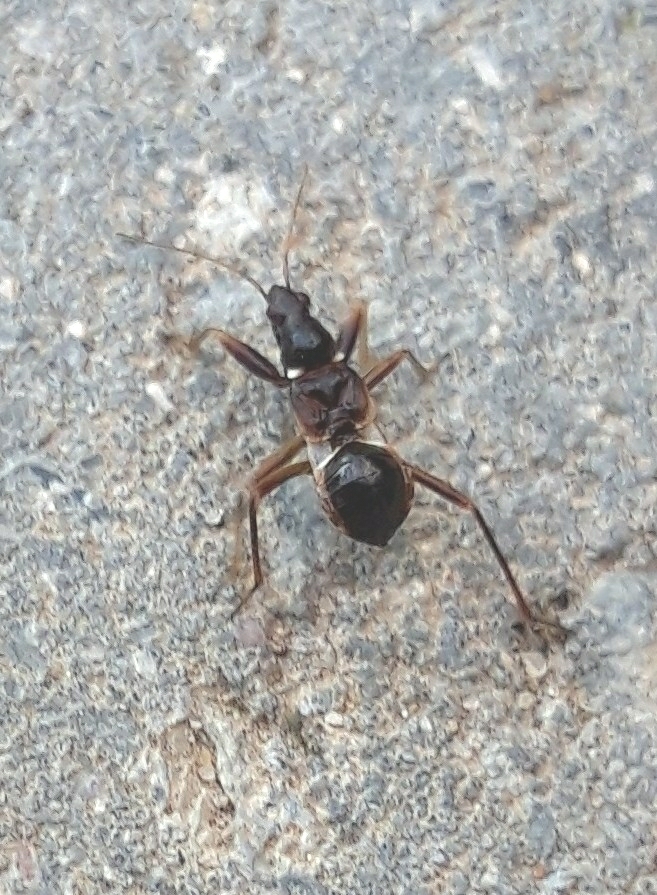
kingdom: Animalia
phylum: Arthropoda
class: Insecta
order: Hemiptera
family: Nabidae
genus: Himacerus
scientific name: Himacerus mirmicoides
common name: Ant damsel bug
